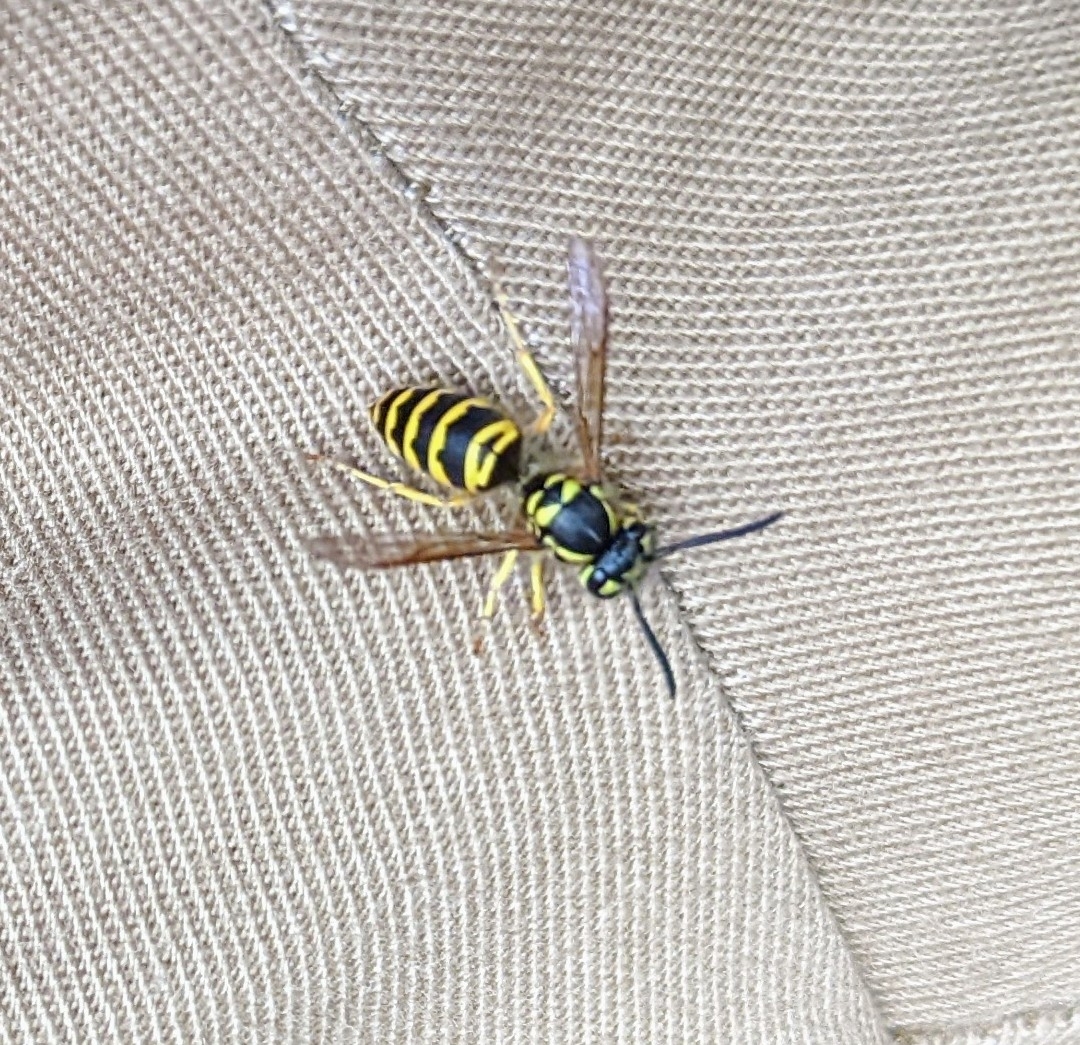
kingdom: Animalia
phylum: Arthropoda
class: Insecta
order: Hymenoptera
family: Vespidae
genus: Vespula
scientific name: Vespula maculifrons
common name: Eastern yellowjacket
